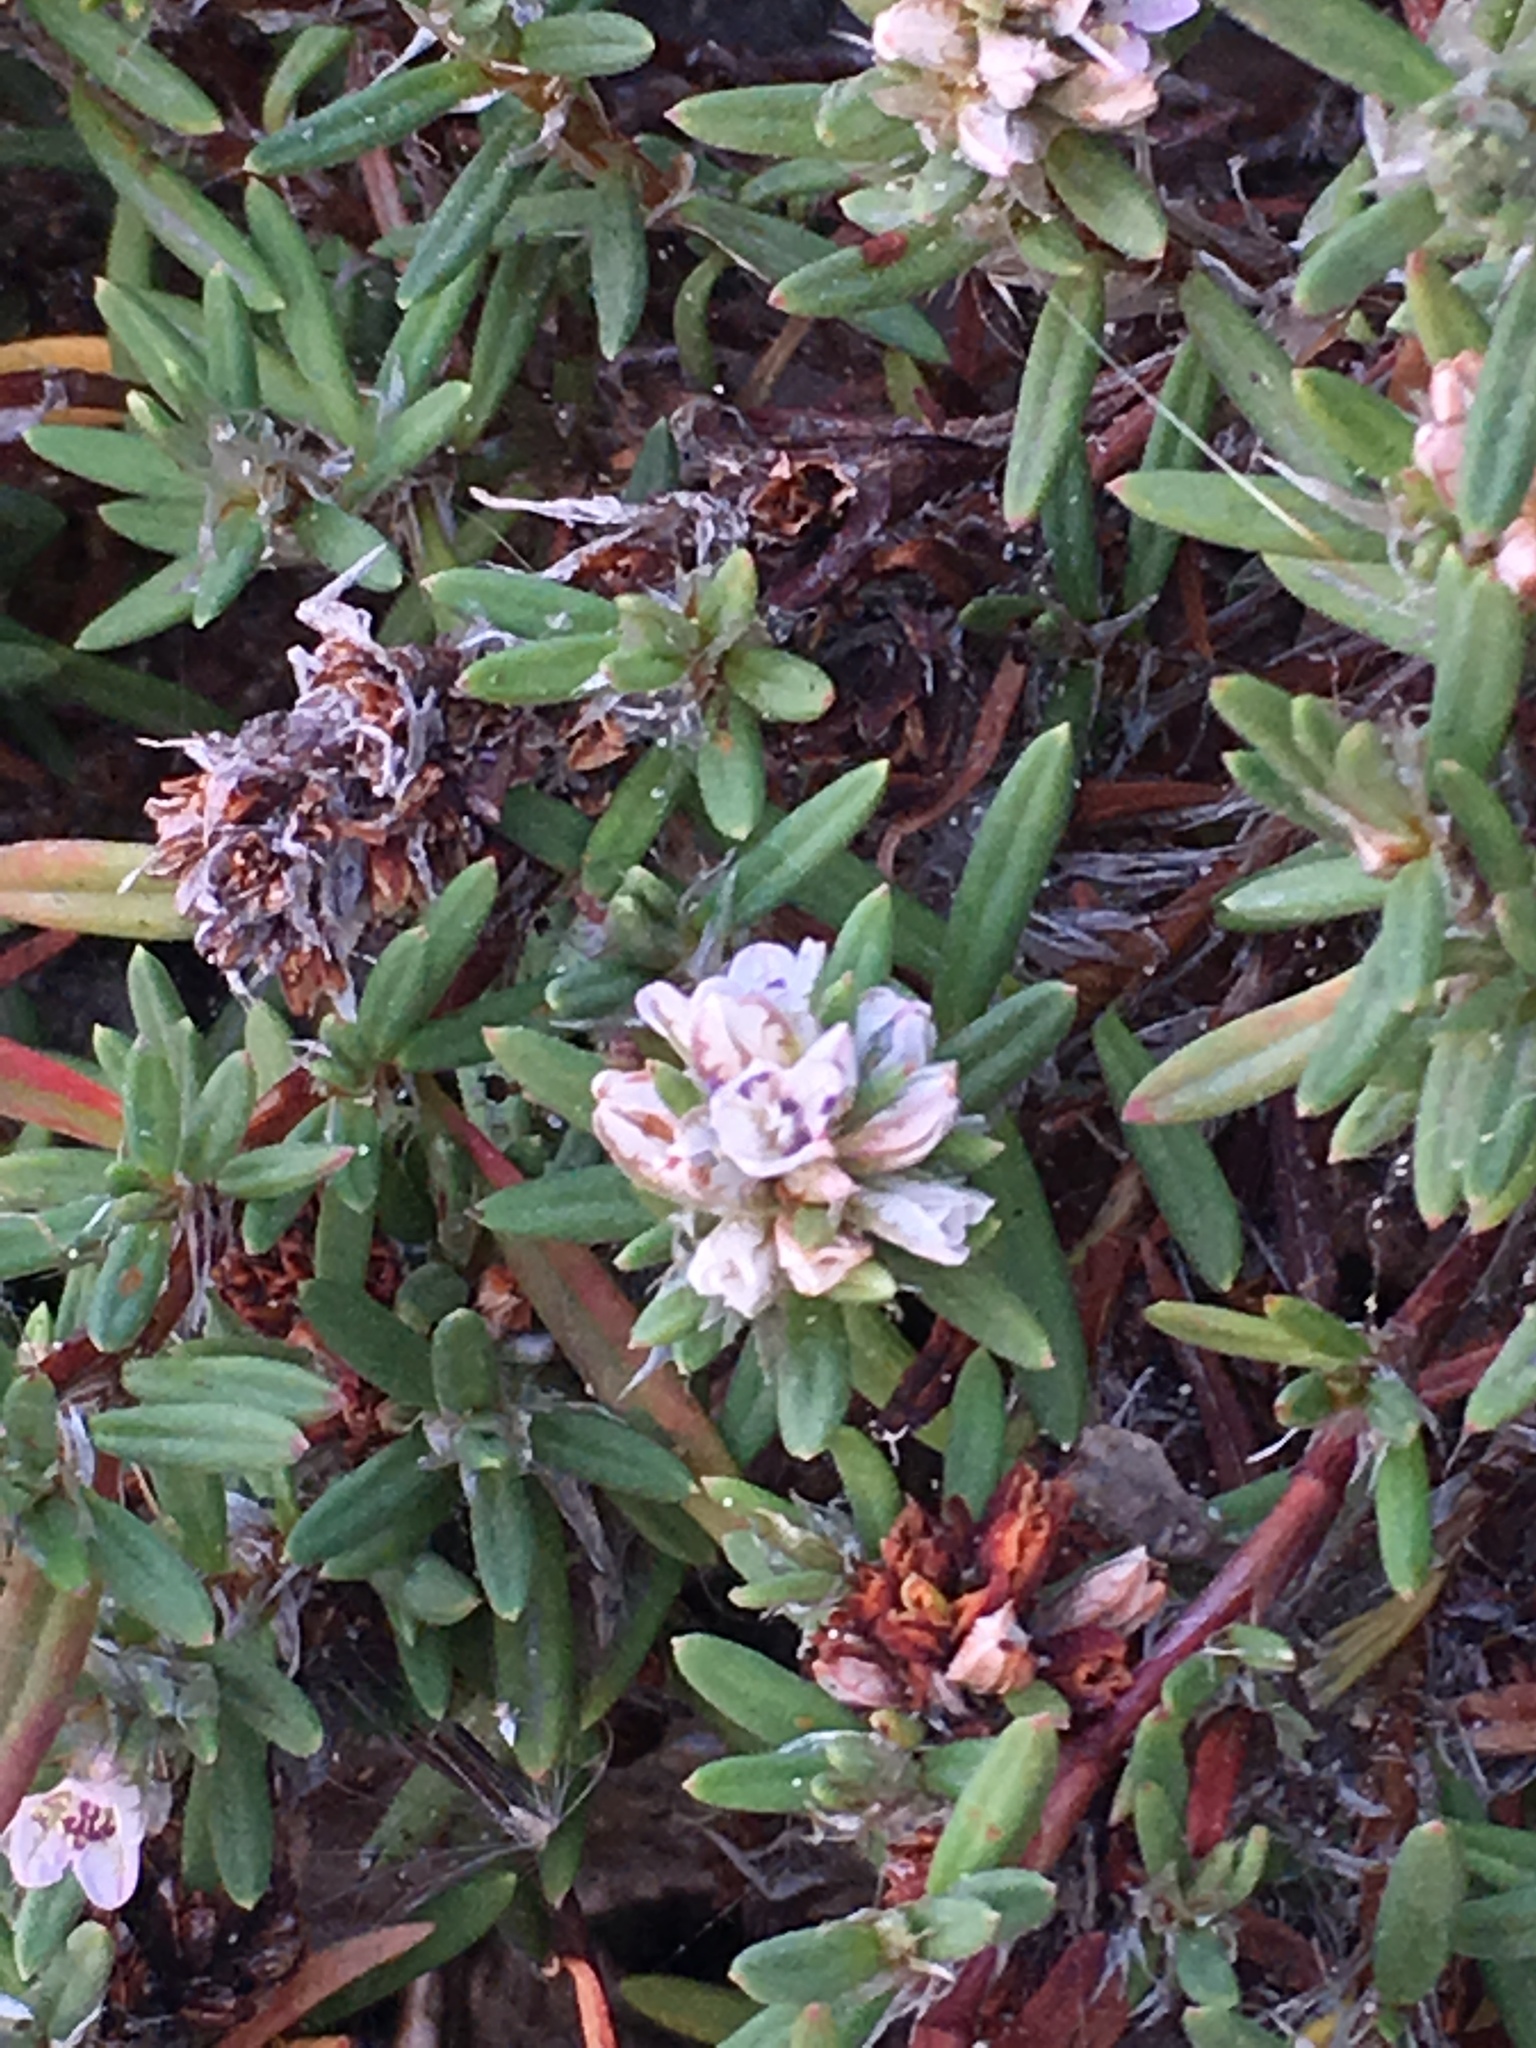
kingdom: Plantae
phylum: Tracheophyta
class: Magnoliopsida
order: Caryophyllales
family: Polygonaceae
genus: Polygonum
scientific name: Polygonum paronychia
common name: Dune knotweed
